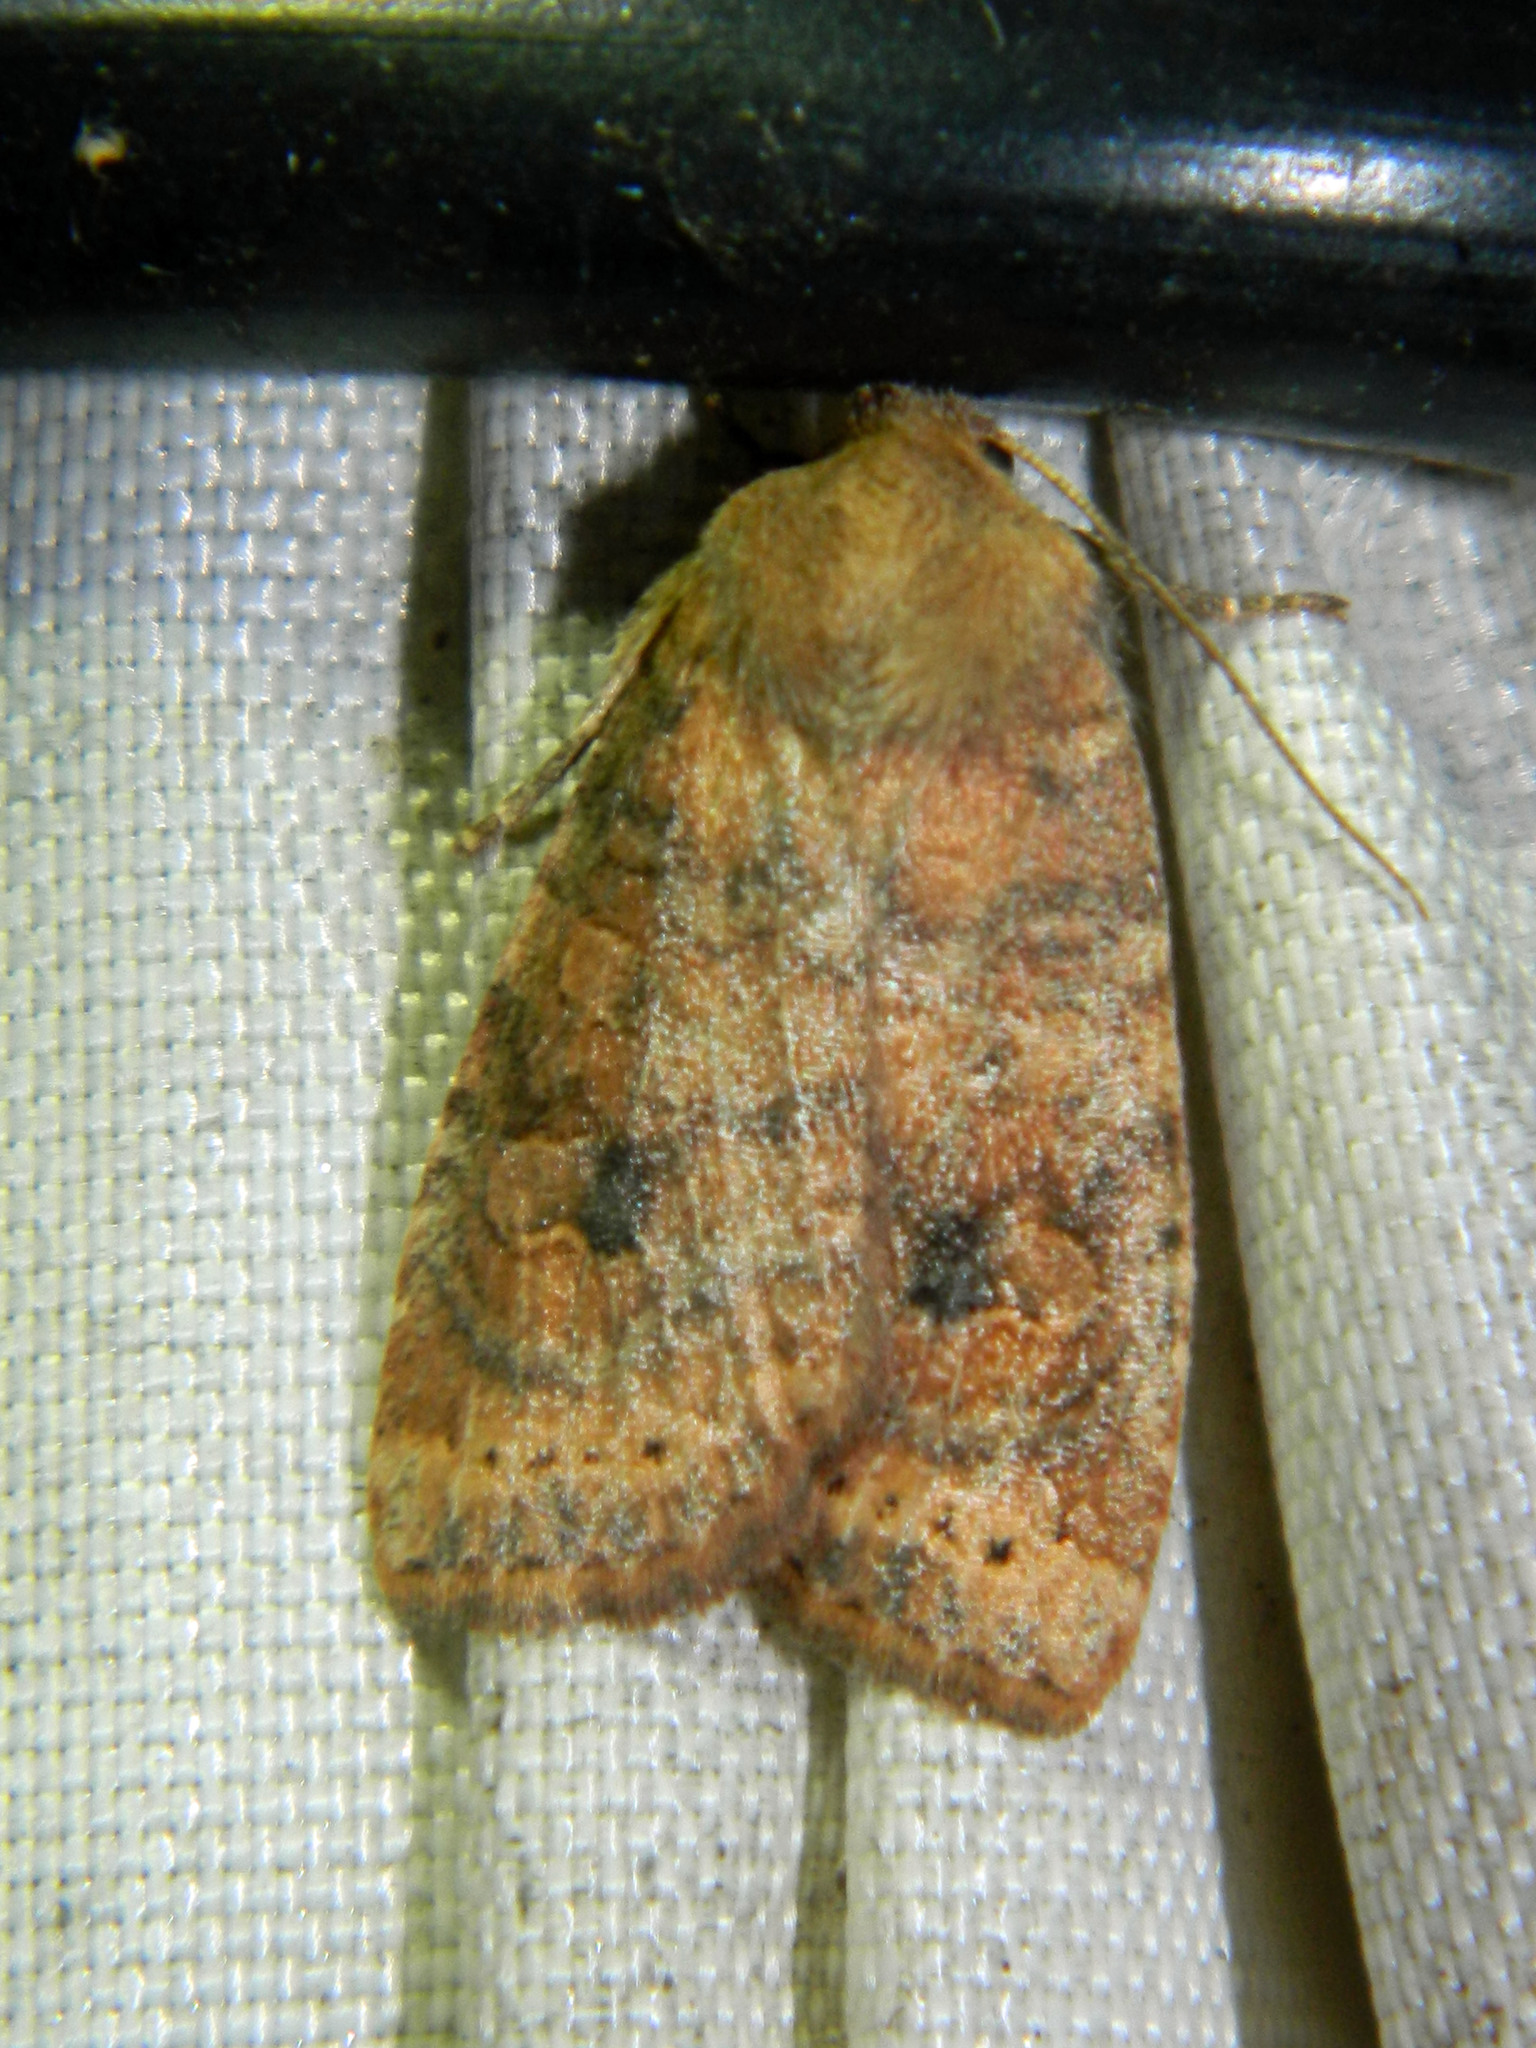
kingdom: Animalia
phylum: Arthropoda
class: Insecta
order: Lepidoptera
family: Noctuidae
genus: Anathix
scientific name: Anathix puta
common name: Puta sallow
